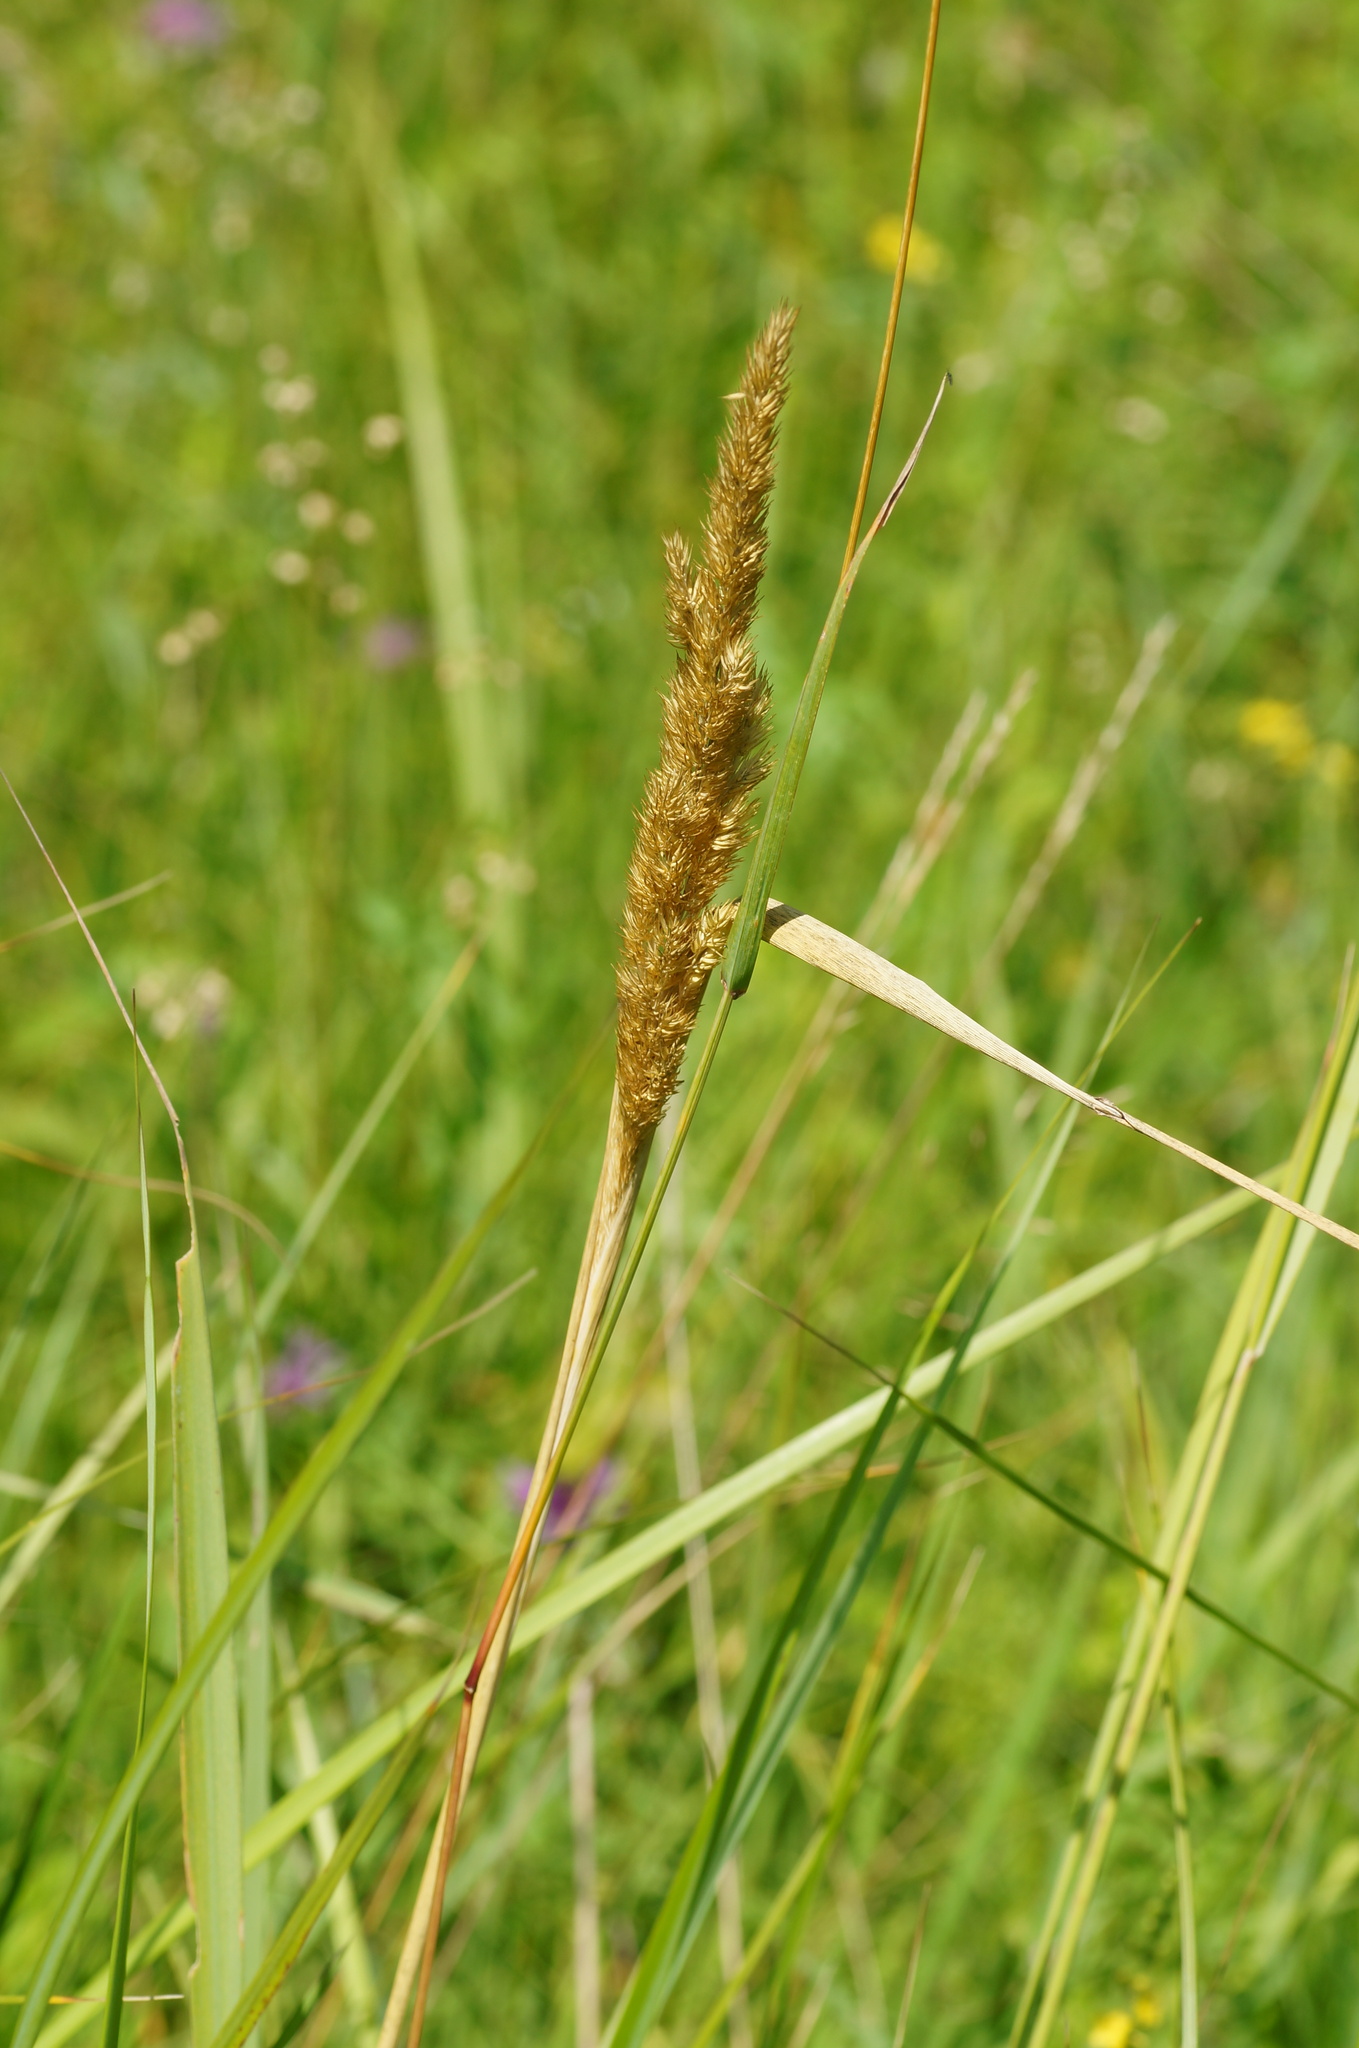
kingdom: Plantae
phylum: Tracheophyta
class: Liliopsida
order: Poales
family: Poaceae
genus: Calamagrostis
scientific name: Calamagrostis epigejos
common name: Wood small-reed
